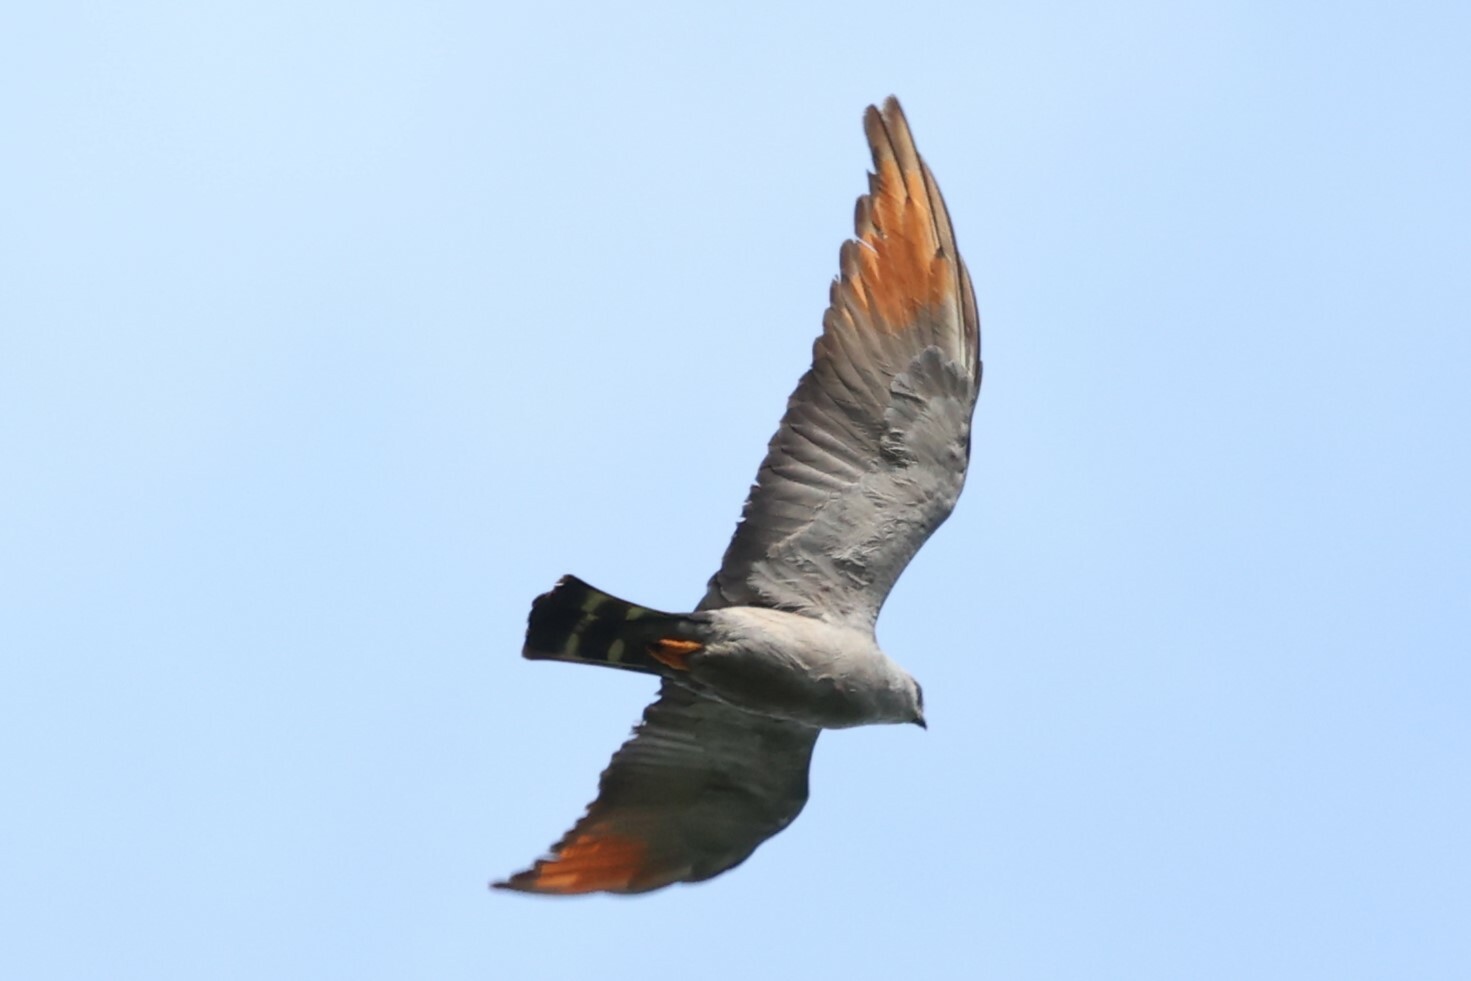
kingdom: Animalia
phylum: Chordata
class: Aves
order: Accipitriformes
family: Accipitridae
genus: Ictinia
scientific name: Ictinia plumbea
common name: Plumbeous kite
